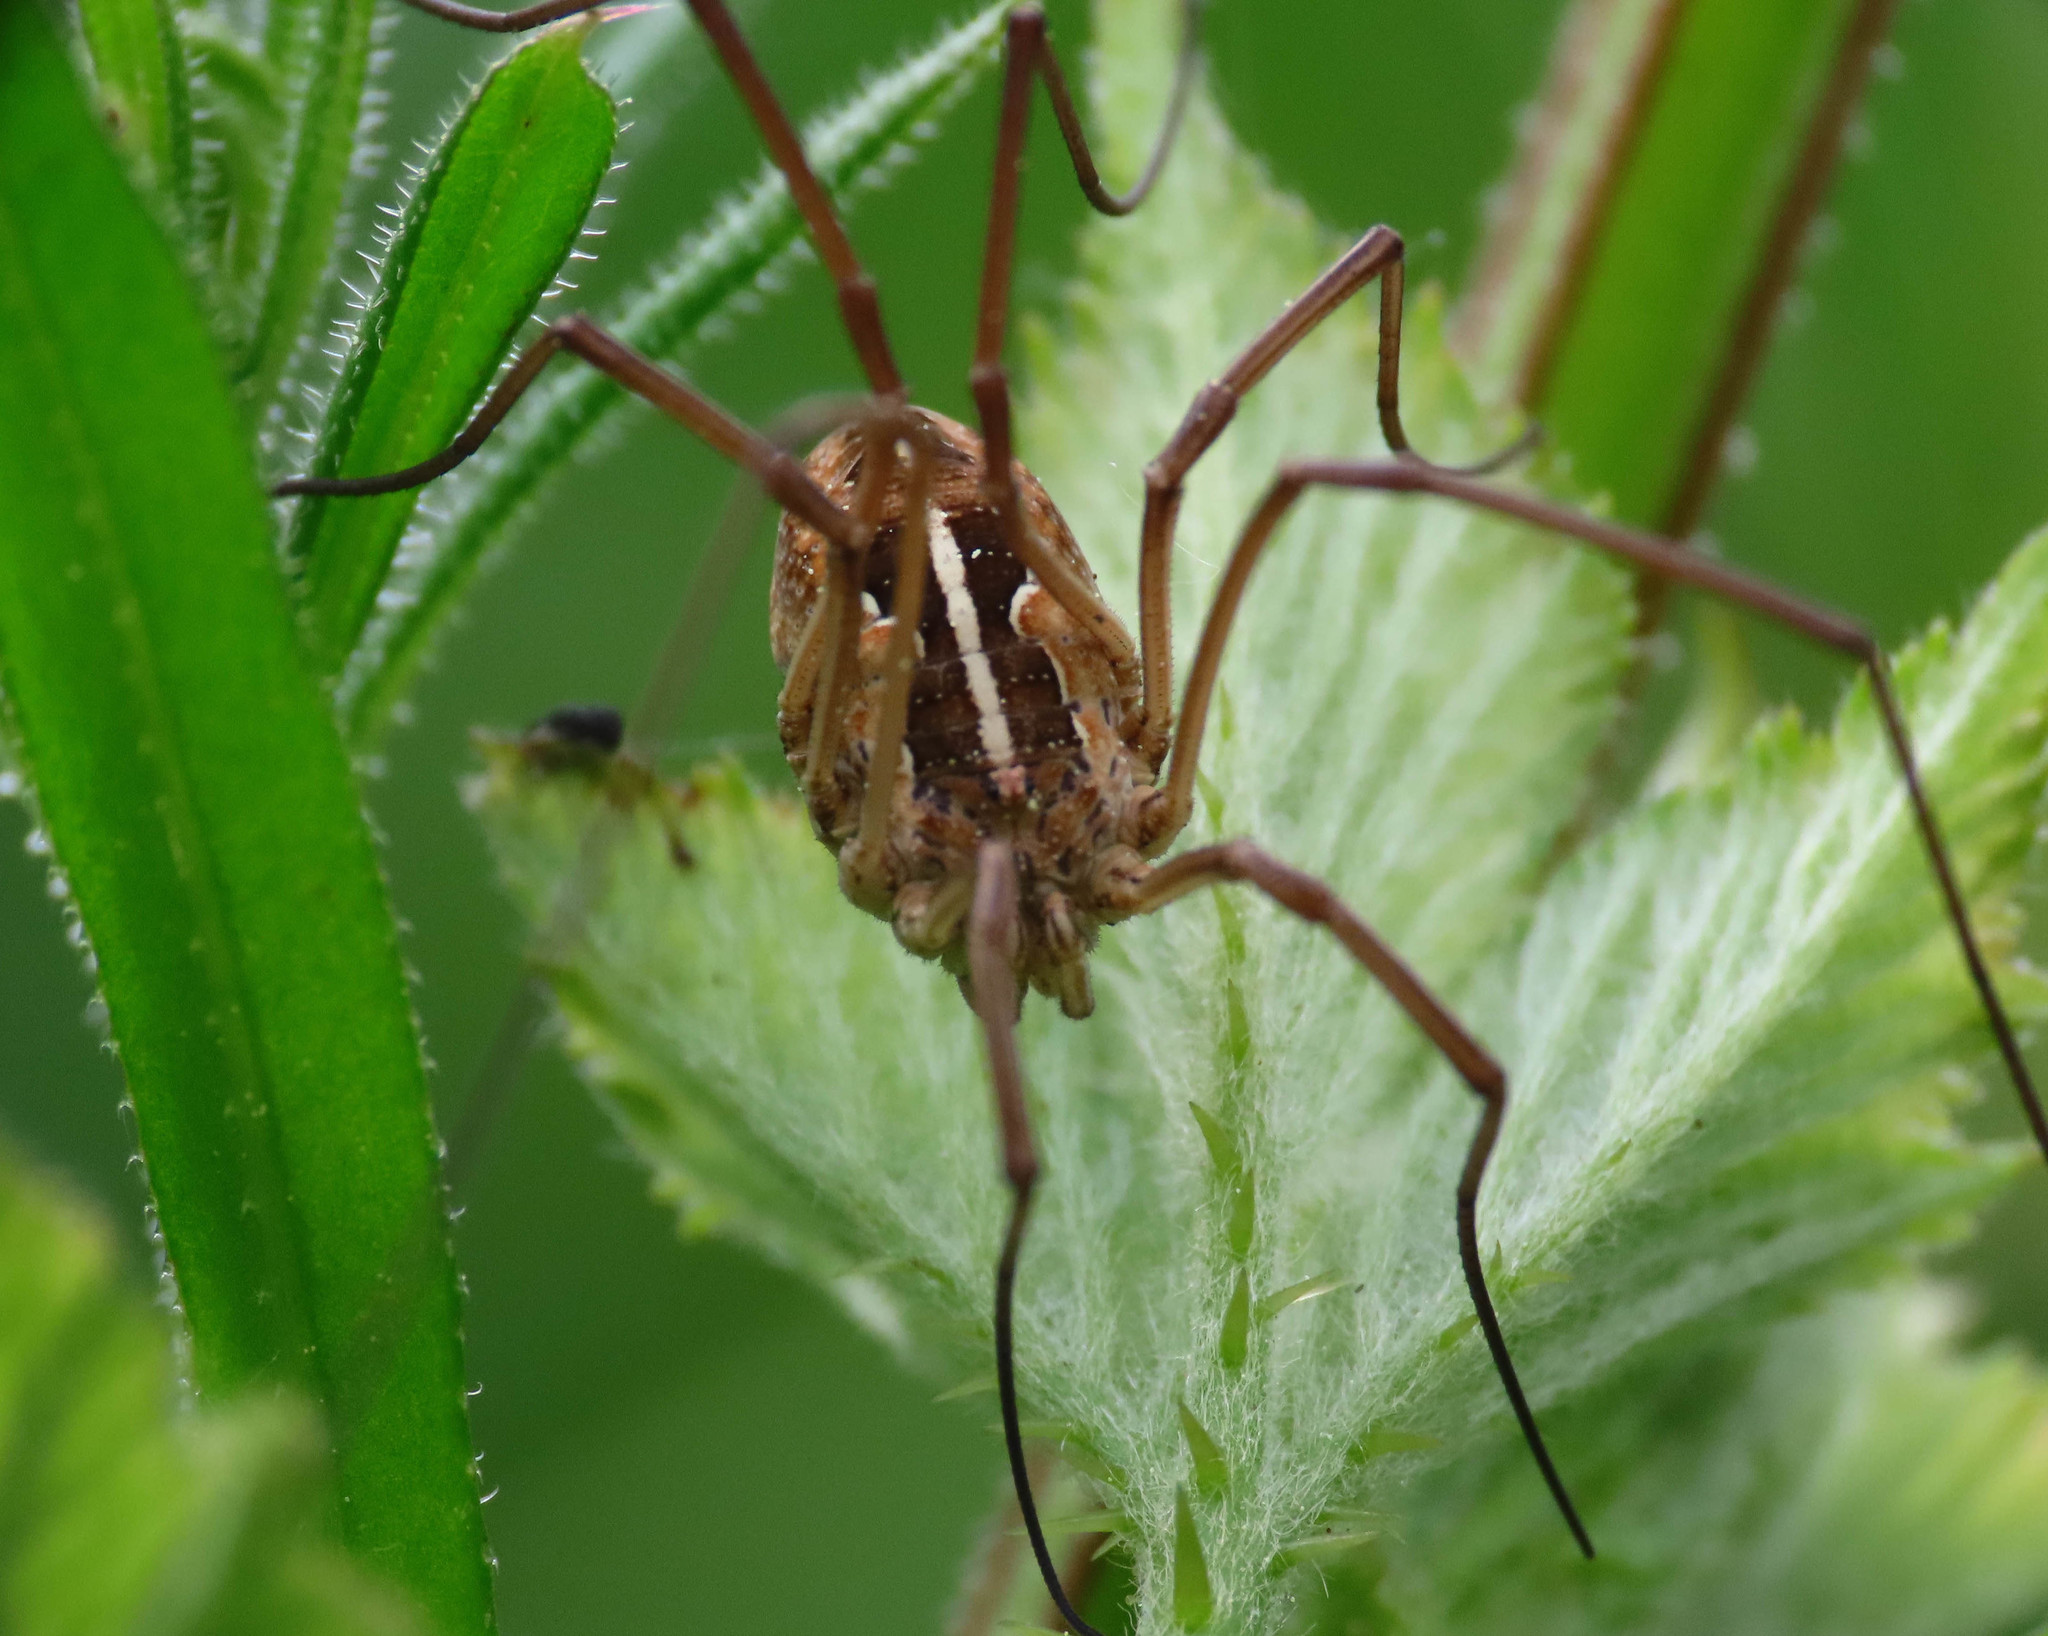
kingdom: Animalia
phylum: Arthropoda
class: Arachnida
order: Opiliones
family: Phalangiidae
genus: Metaphalangium
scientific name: Metaphalangium cirtanum
